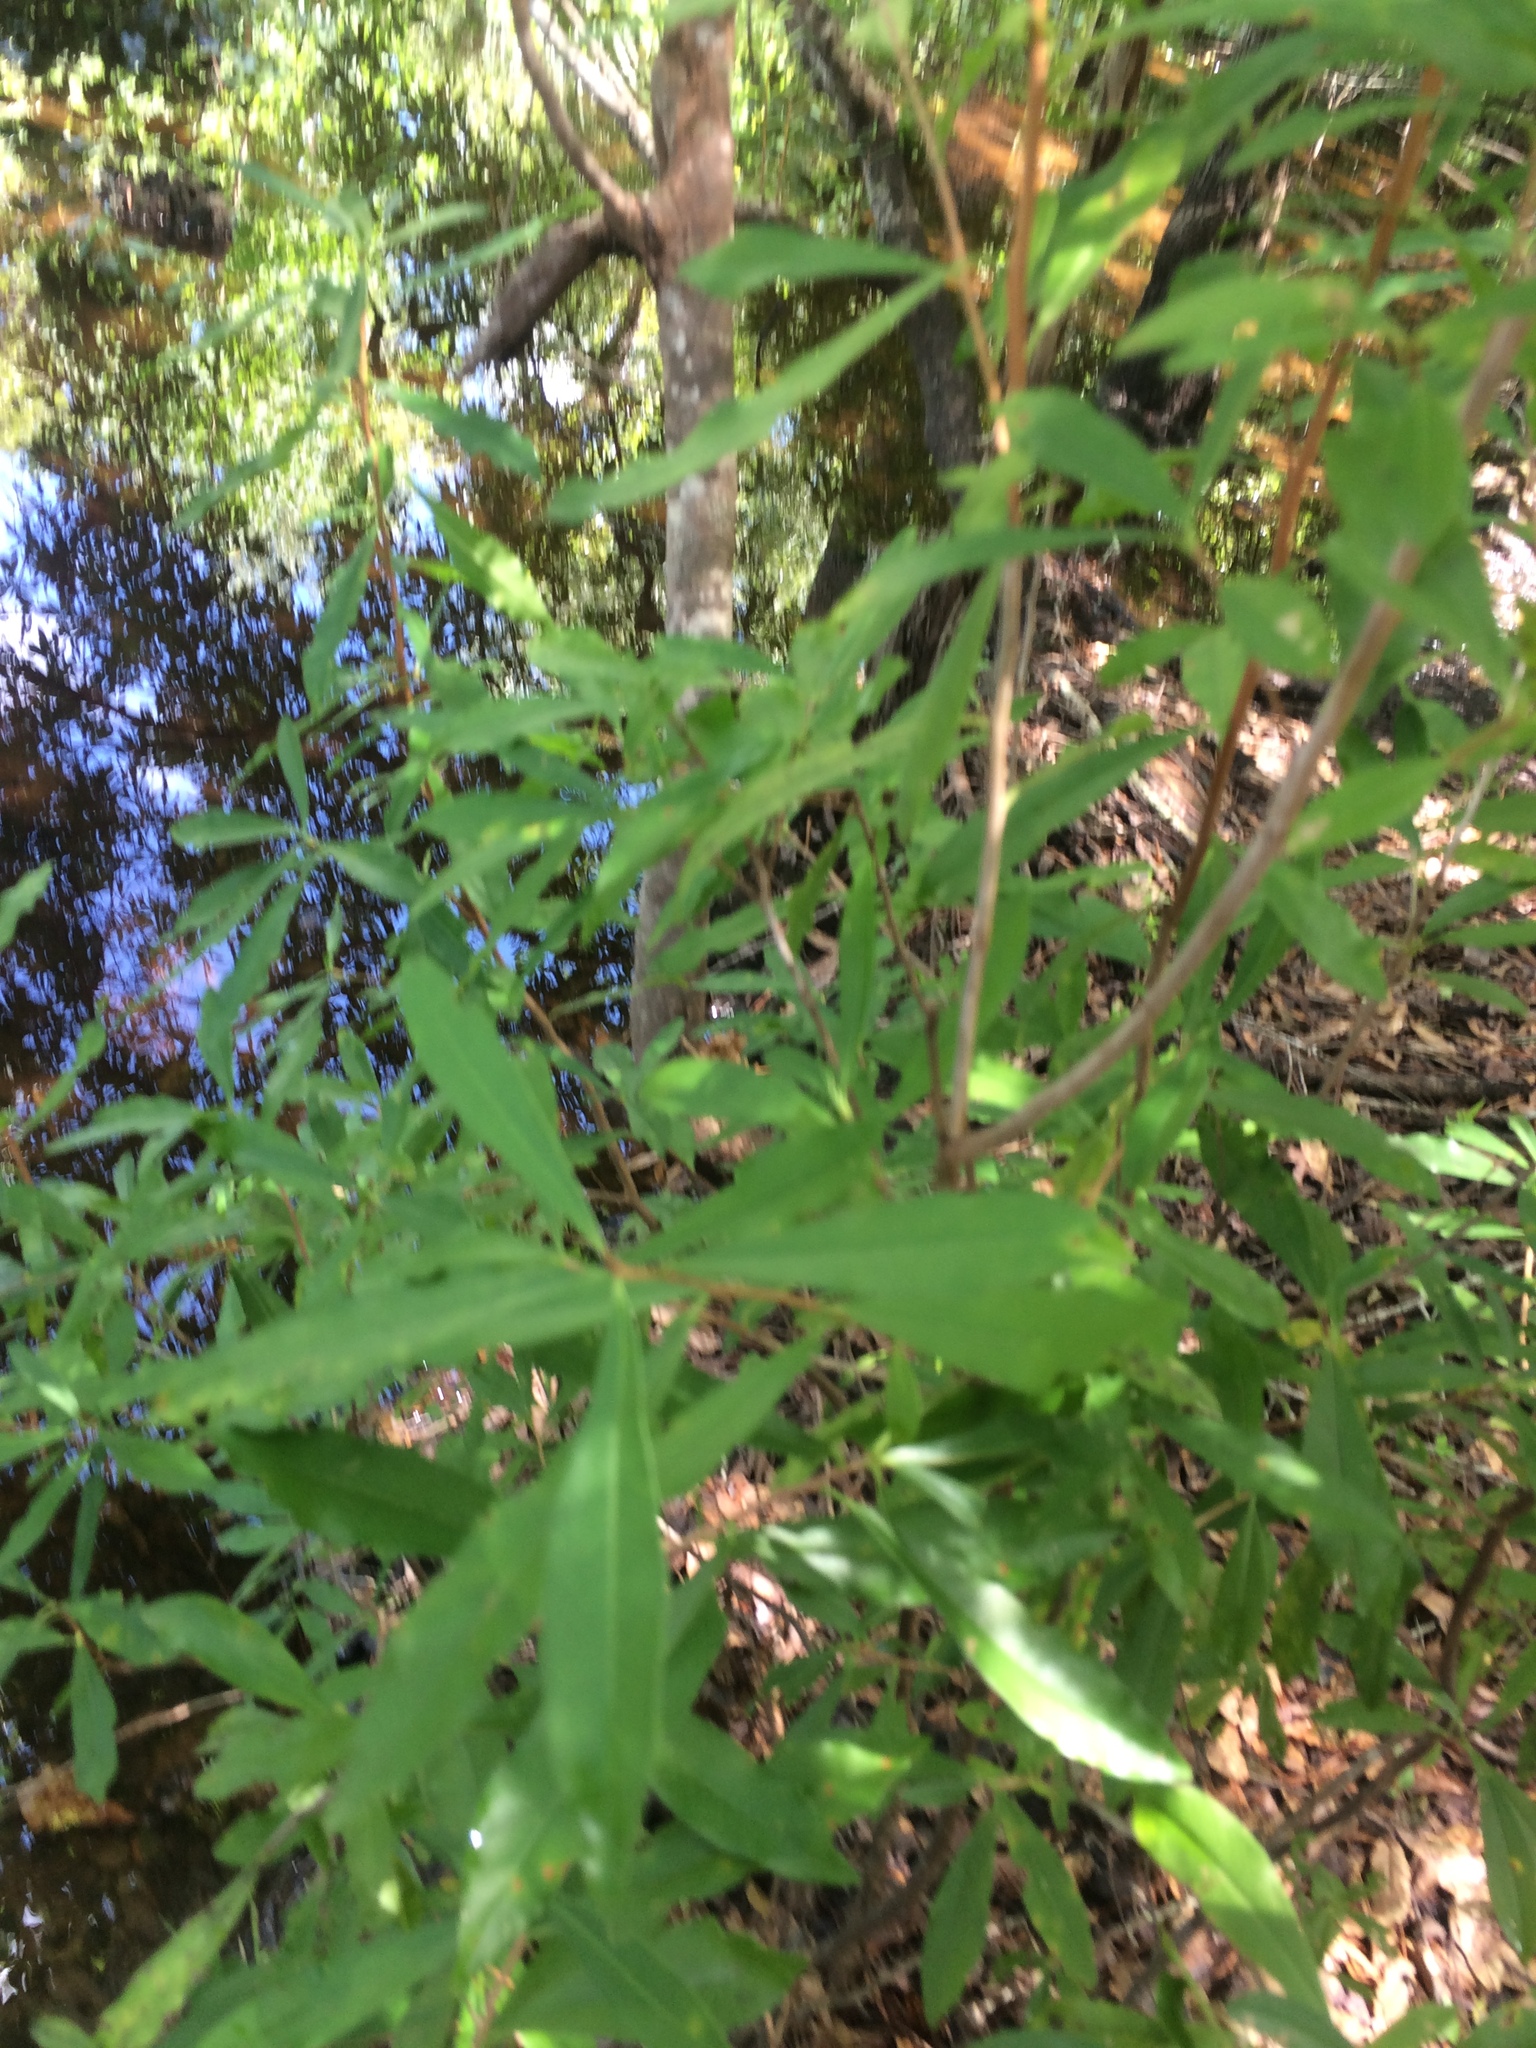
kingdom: Plantae
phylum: Tracheophyta
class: Magnoliopsida
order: Ericales
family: Cyrillaceae
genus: Cyrilla
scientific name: Cyrilla racemiflora
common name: Black titi
